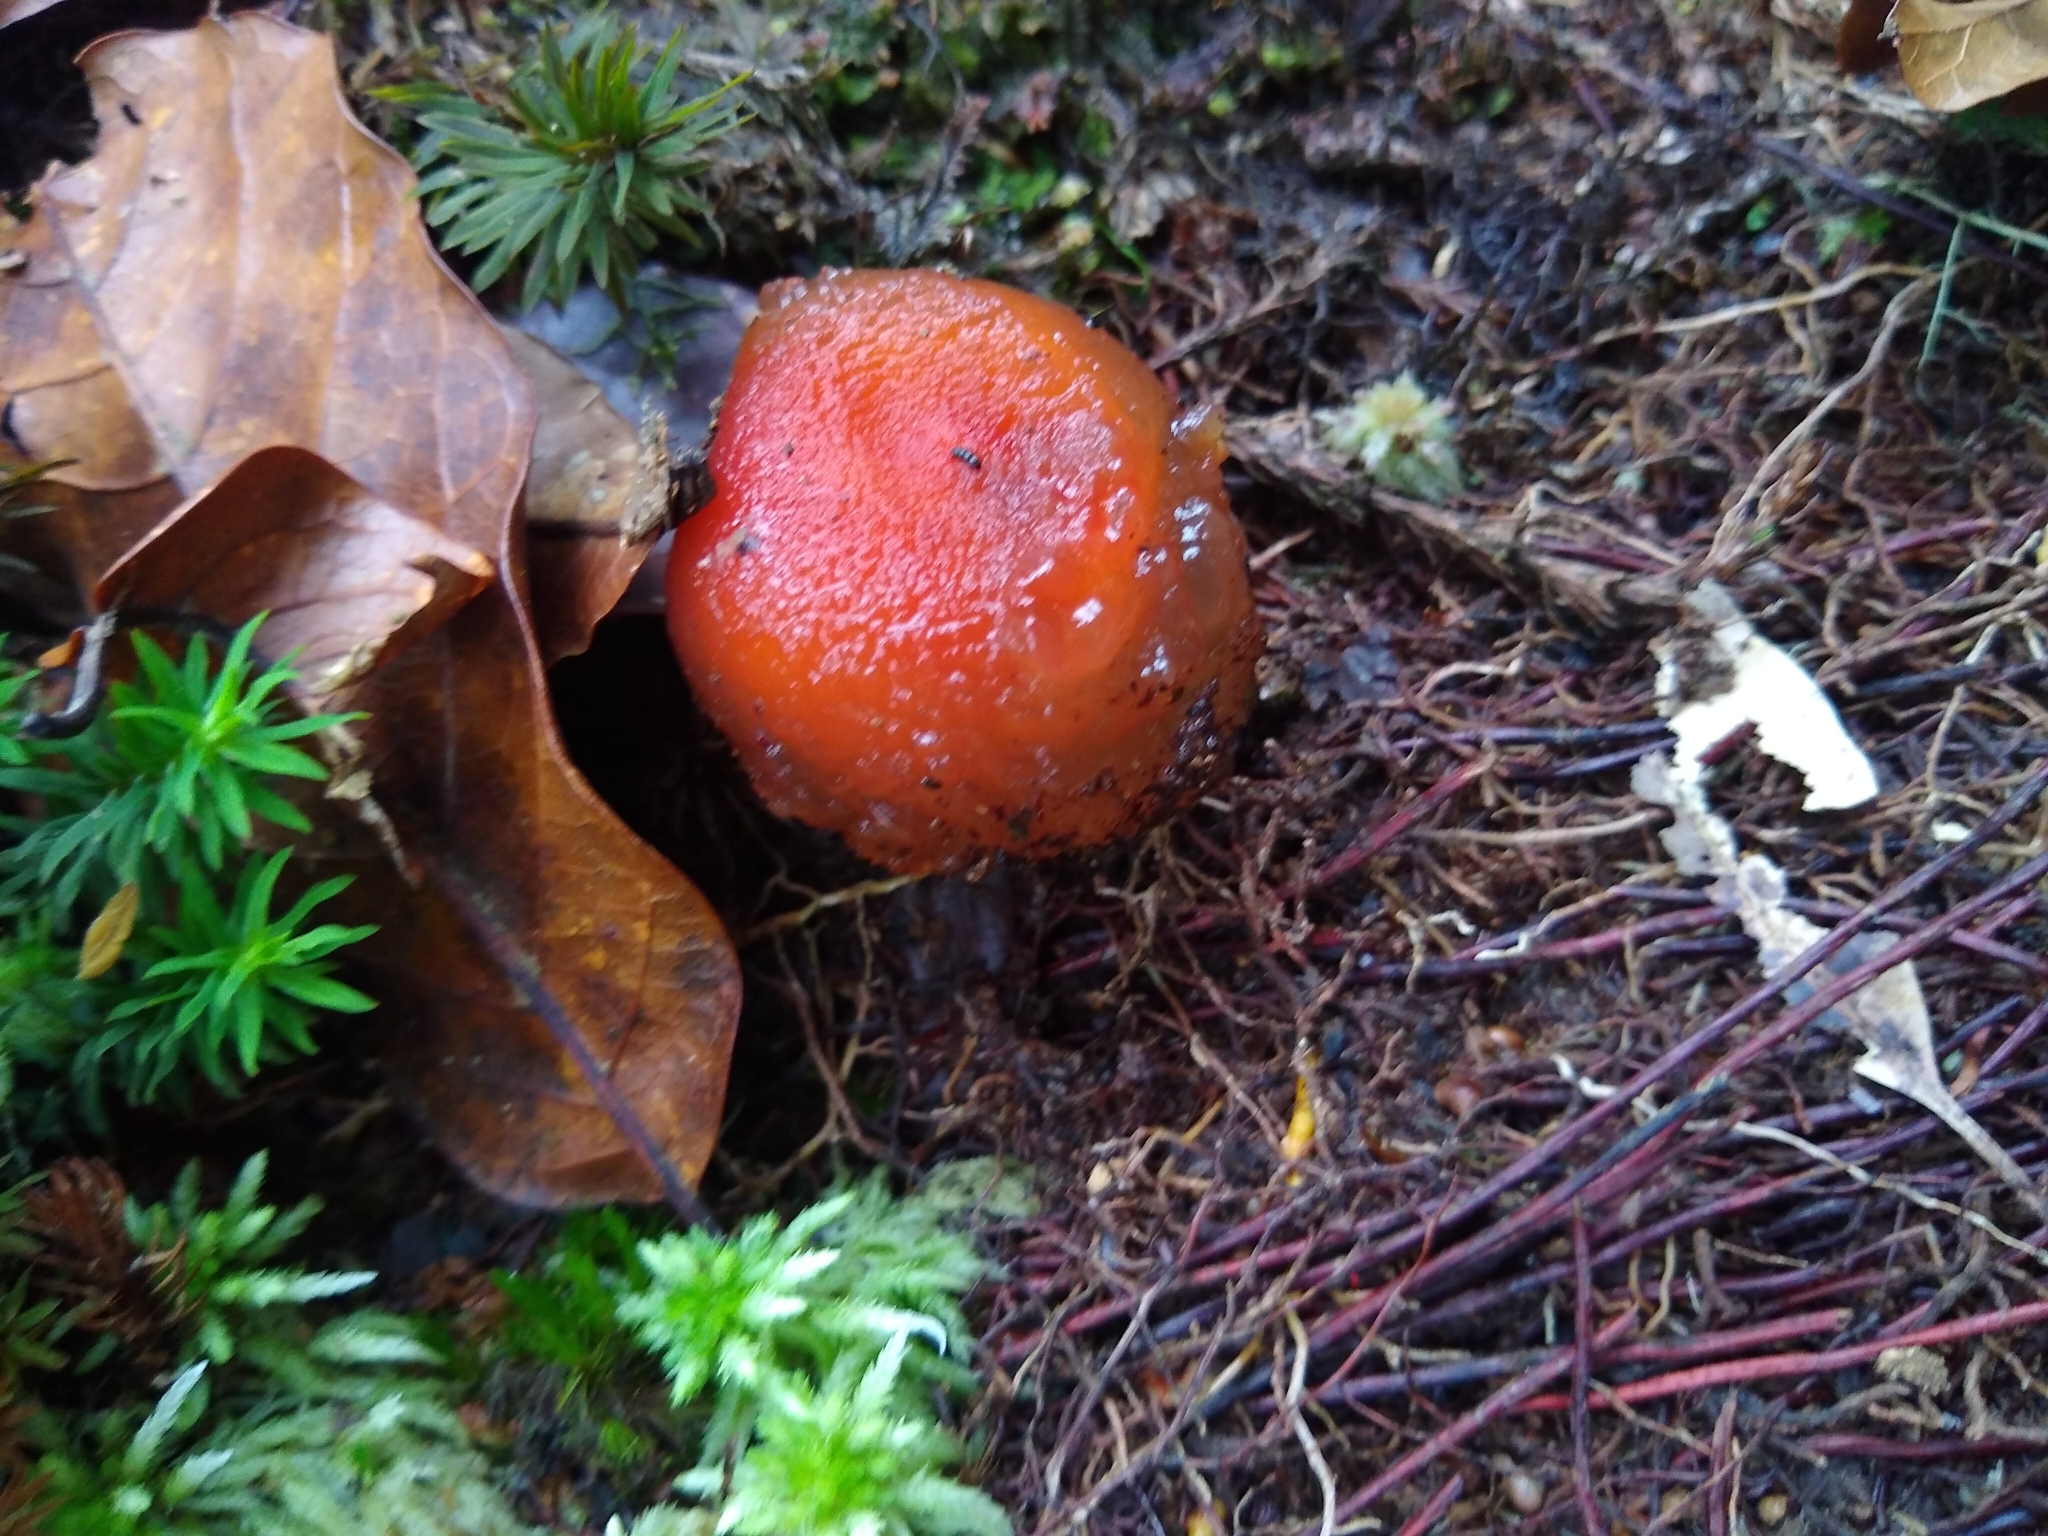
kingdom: Fungi
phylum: Basidiomycota
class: Agaricomycetes
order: Boletales
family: Calostomataceae
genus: Calostoma
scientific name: Calostoma cinnabarinum
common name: Stalked puffball-in-aspic
